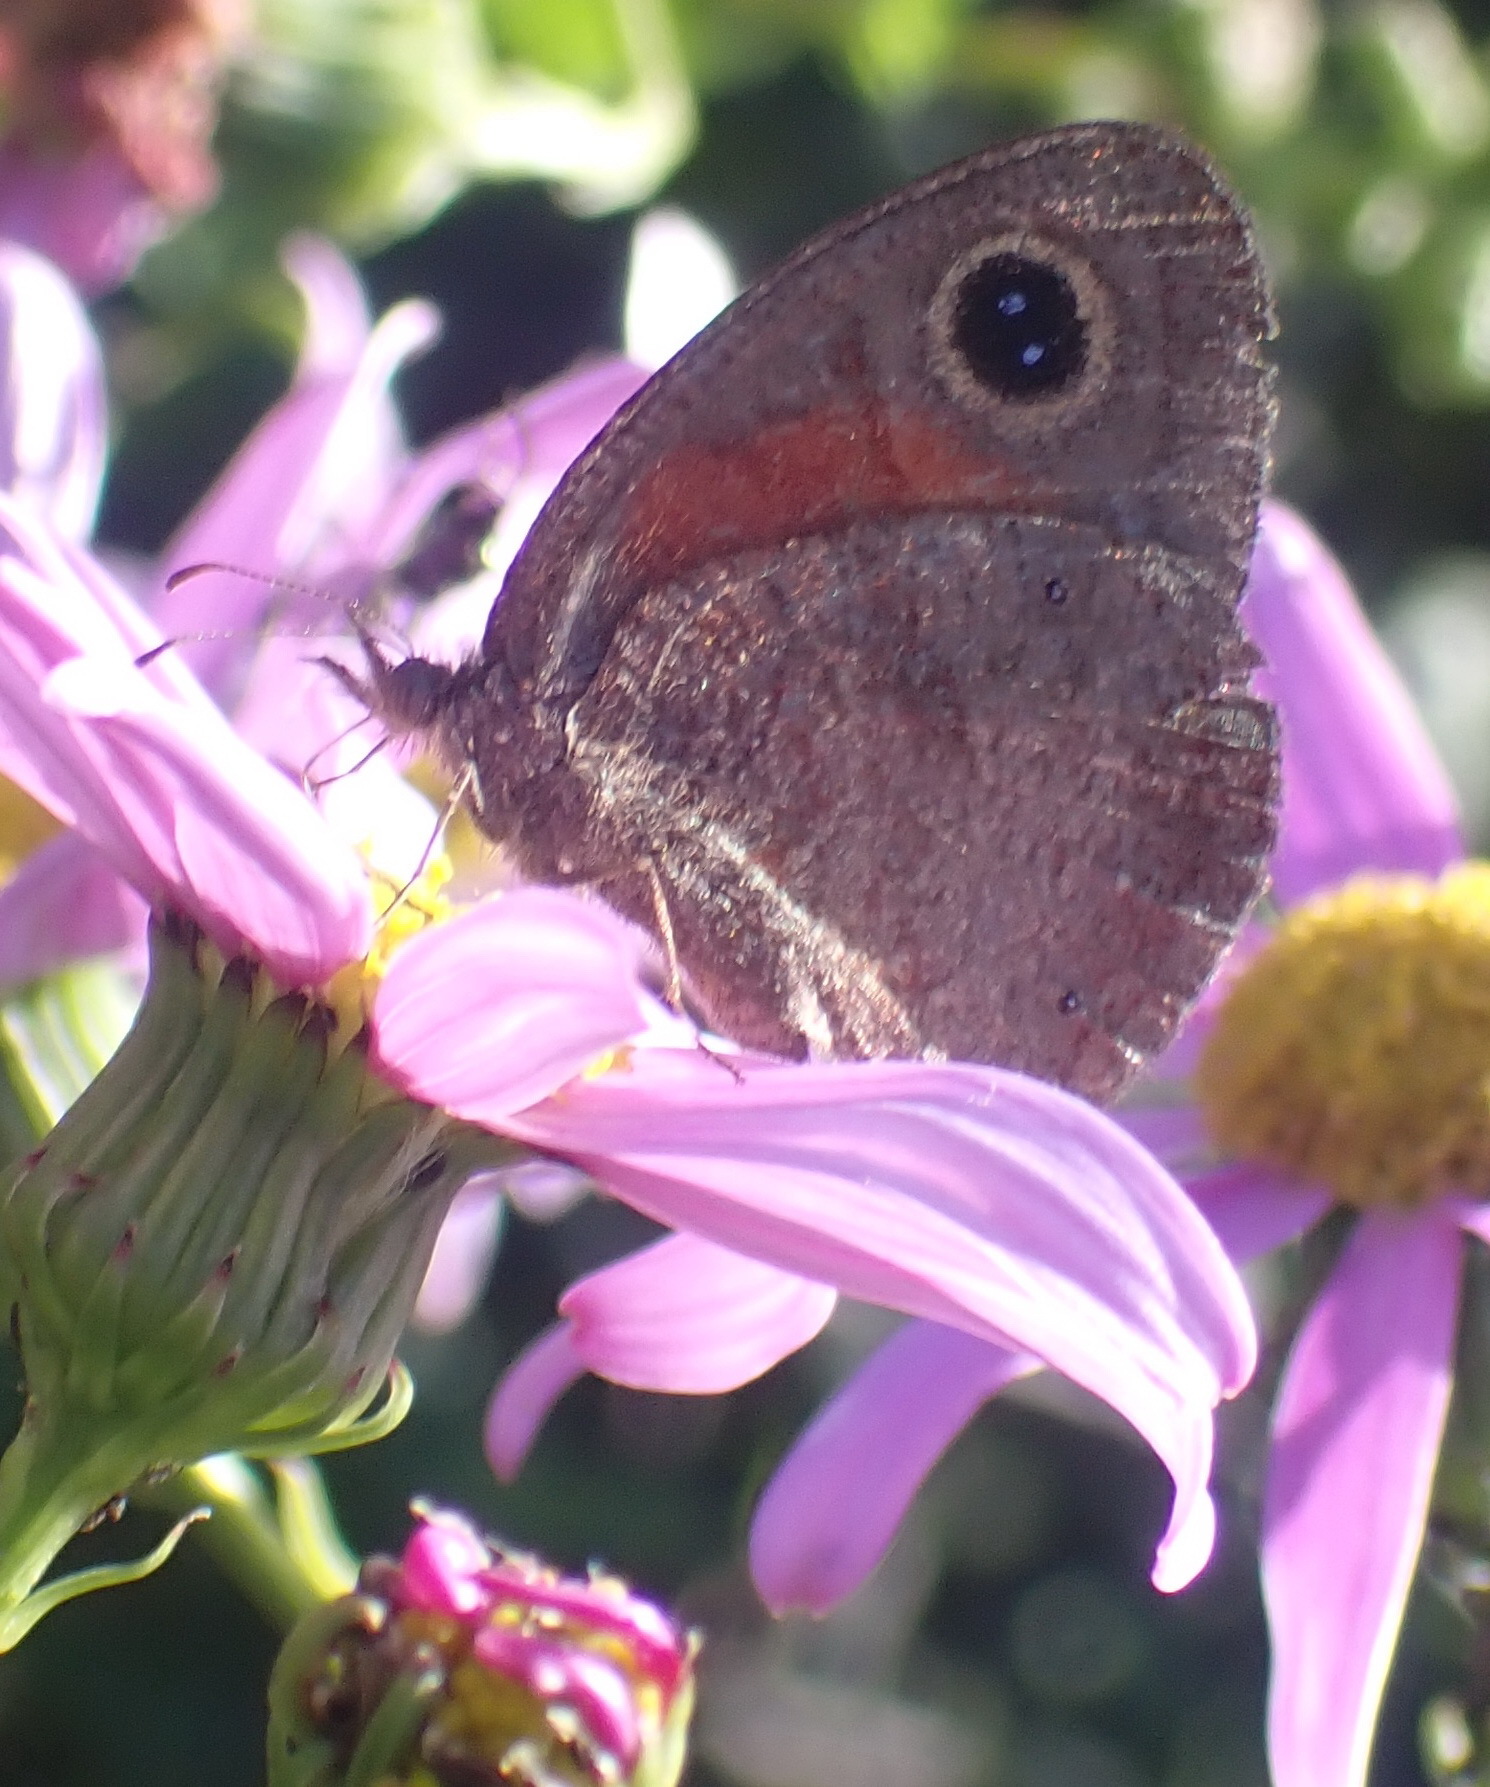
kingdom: Animalia
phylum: Arthropoda
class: Insecta
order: Lepidoptera
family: Nymphalidae
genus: Cassionympha
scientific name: Cassionympha cassius
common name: Rainforest brown
